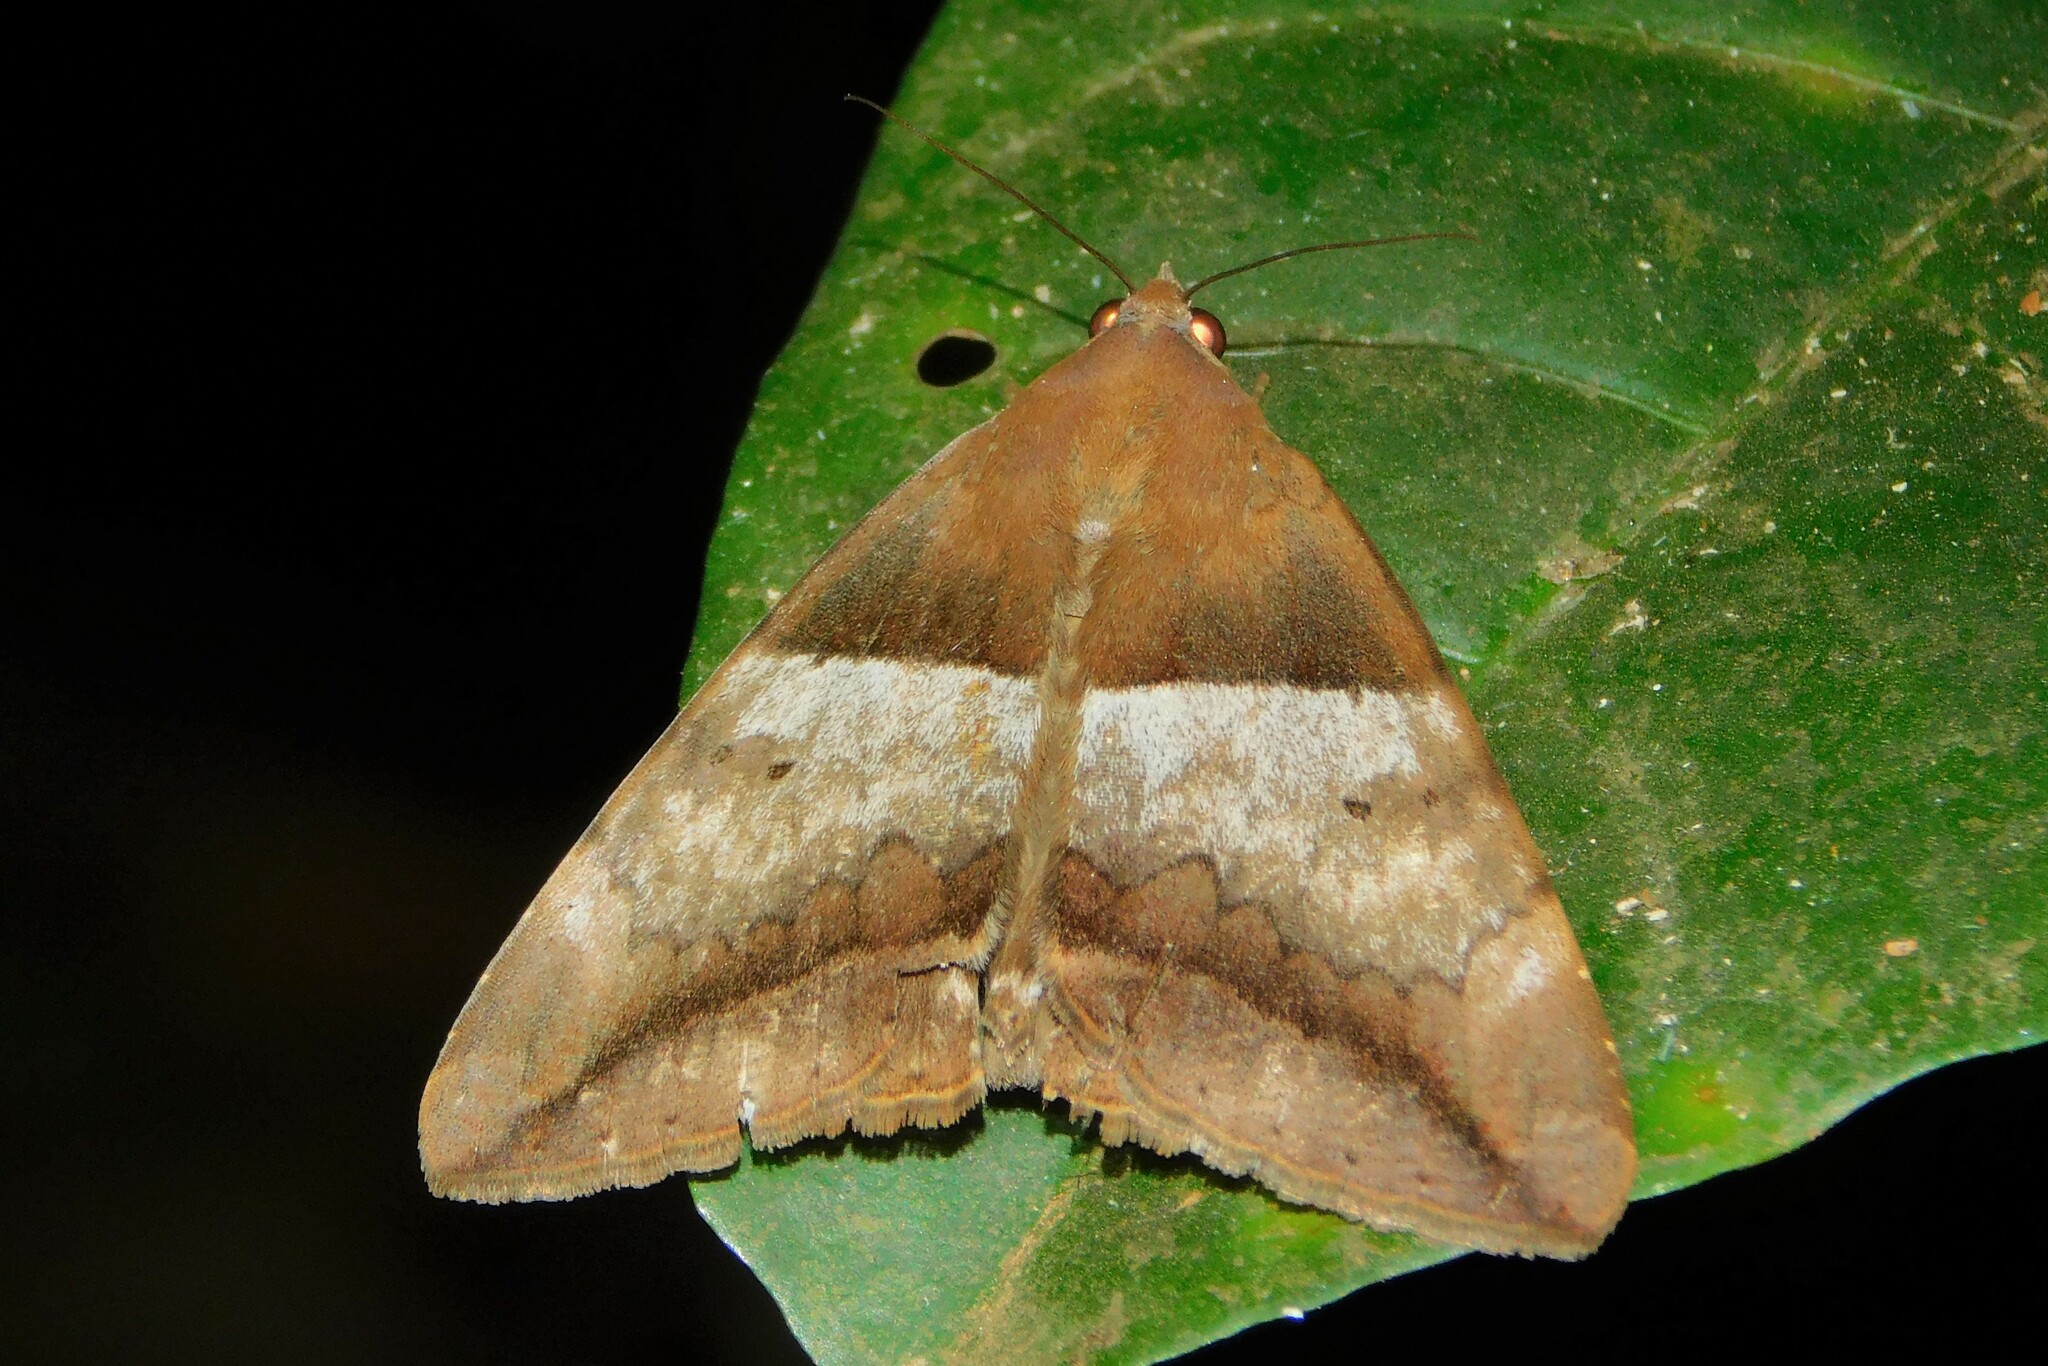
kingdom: Animalia
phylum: Arthropoda
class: Insecta
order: Lepidoptera
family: Erebidae
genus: Achaea
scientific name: Achaea lienardi
